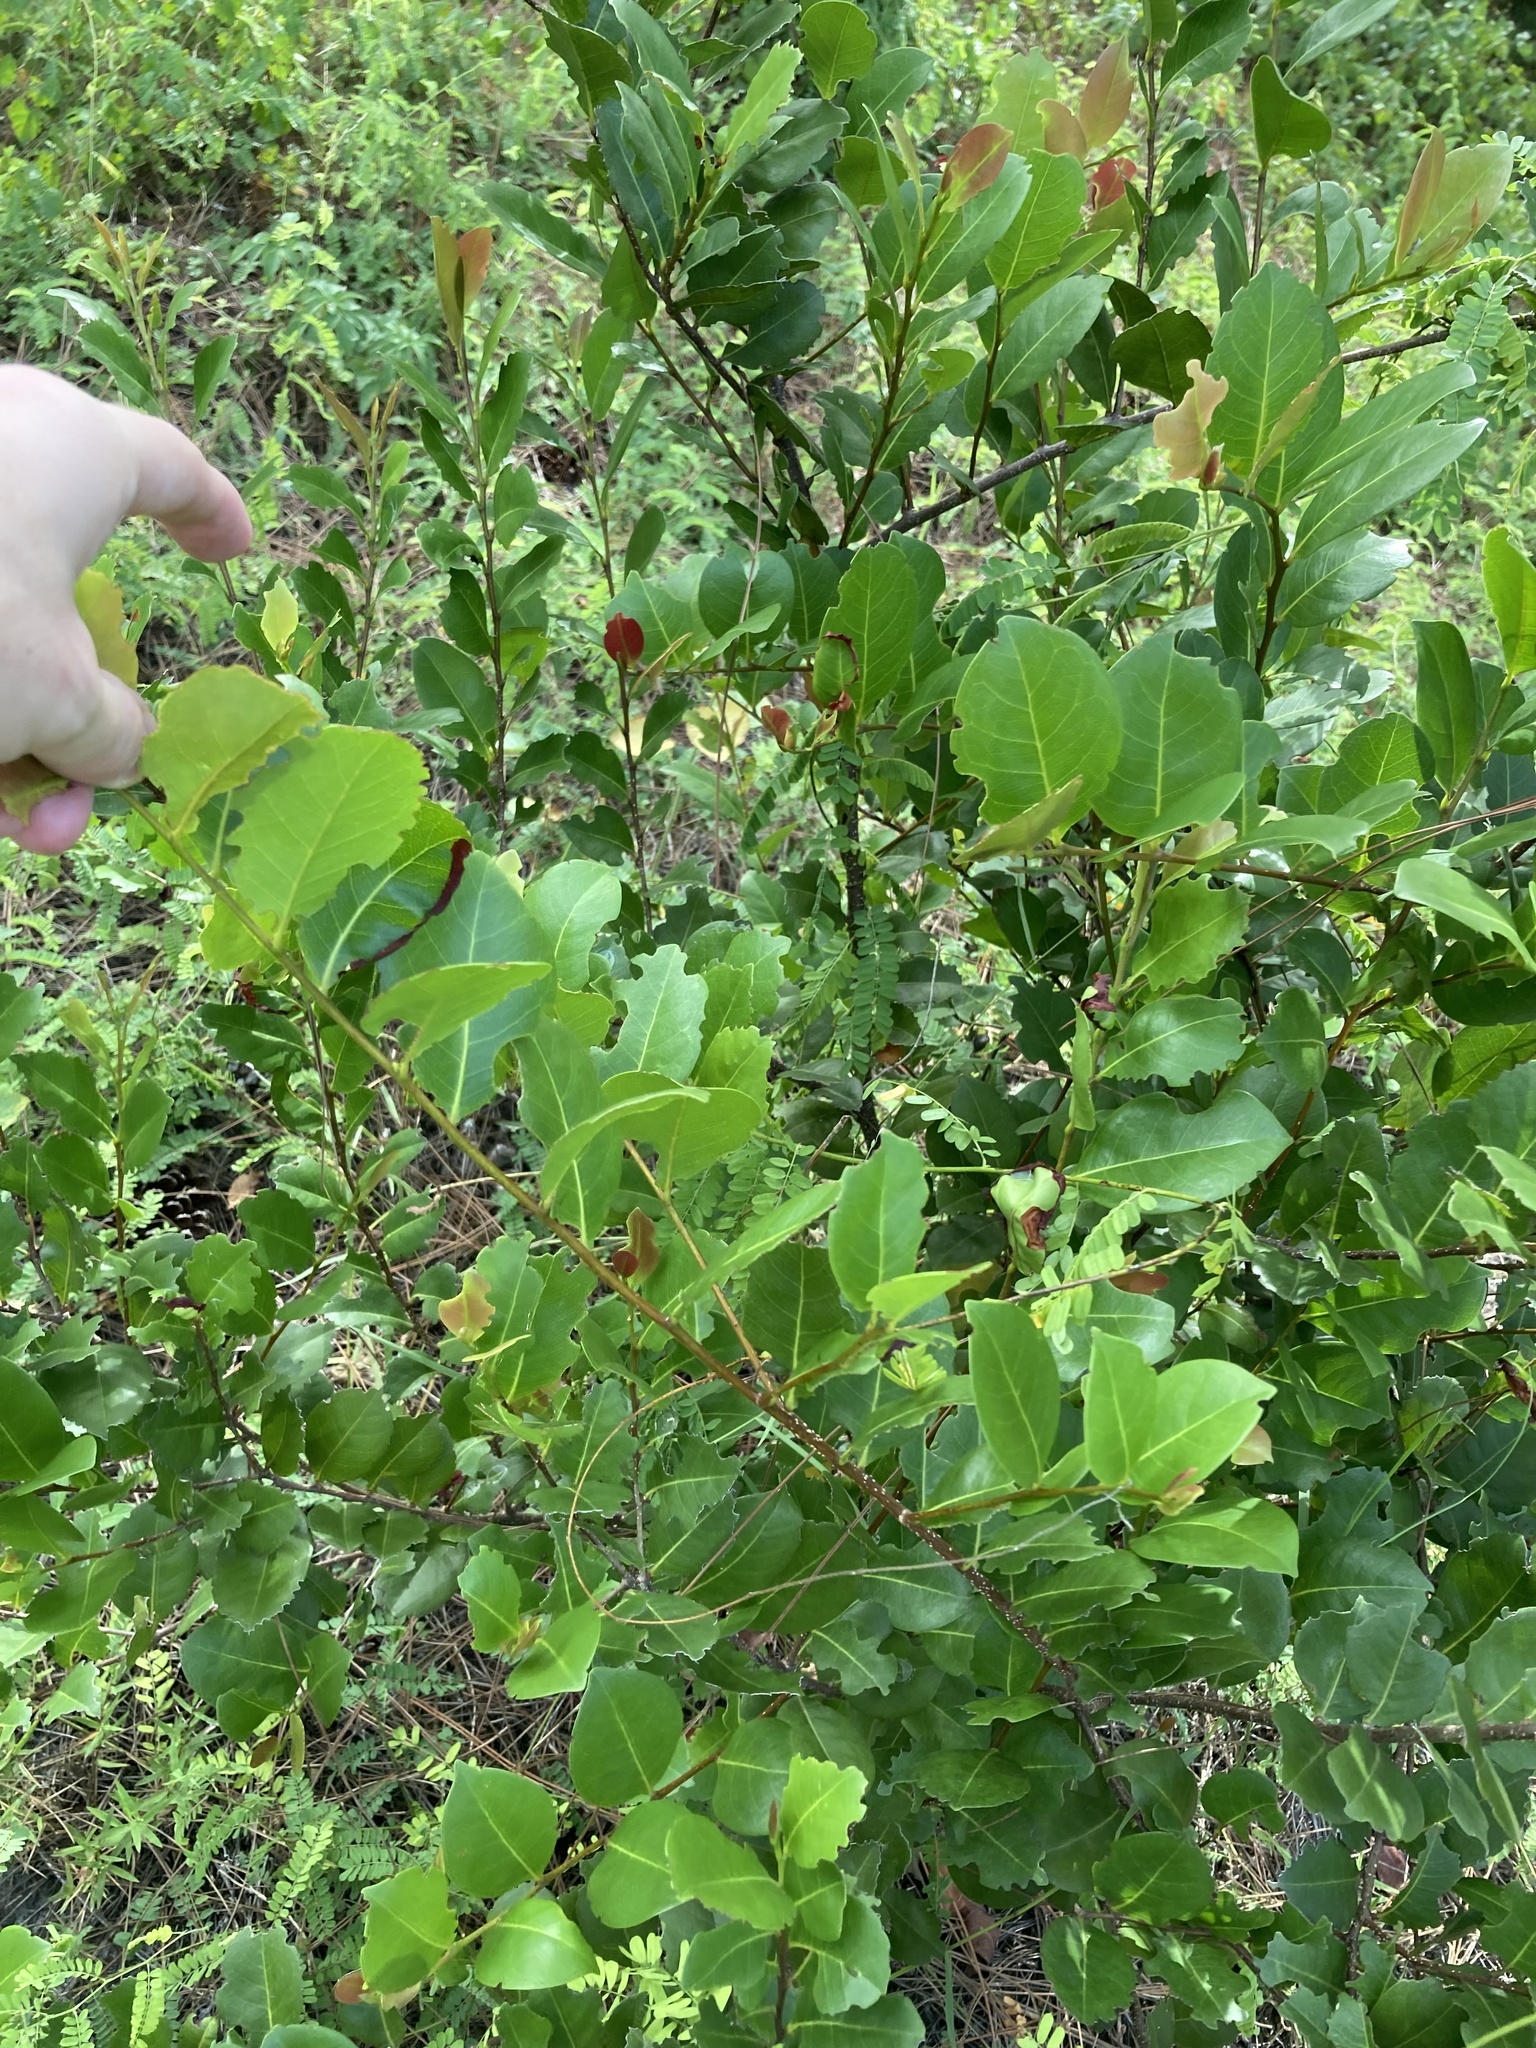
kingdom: Plantae
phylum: Tracheophyta
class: Magnoliopsida
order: Malpighiales
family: Chrysobalanaceae
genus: Chrysobalanus
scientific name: Chrysobalanus icaco
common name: Coco plum
